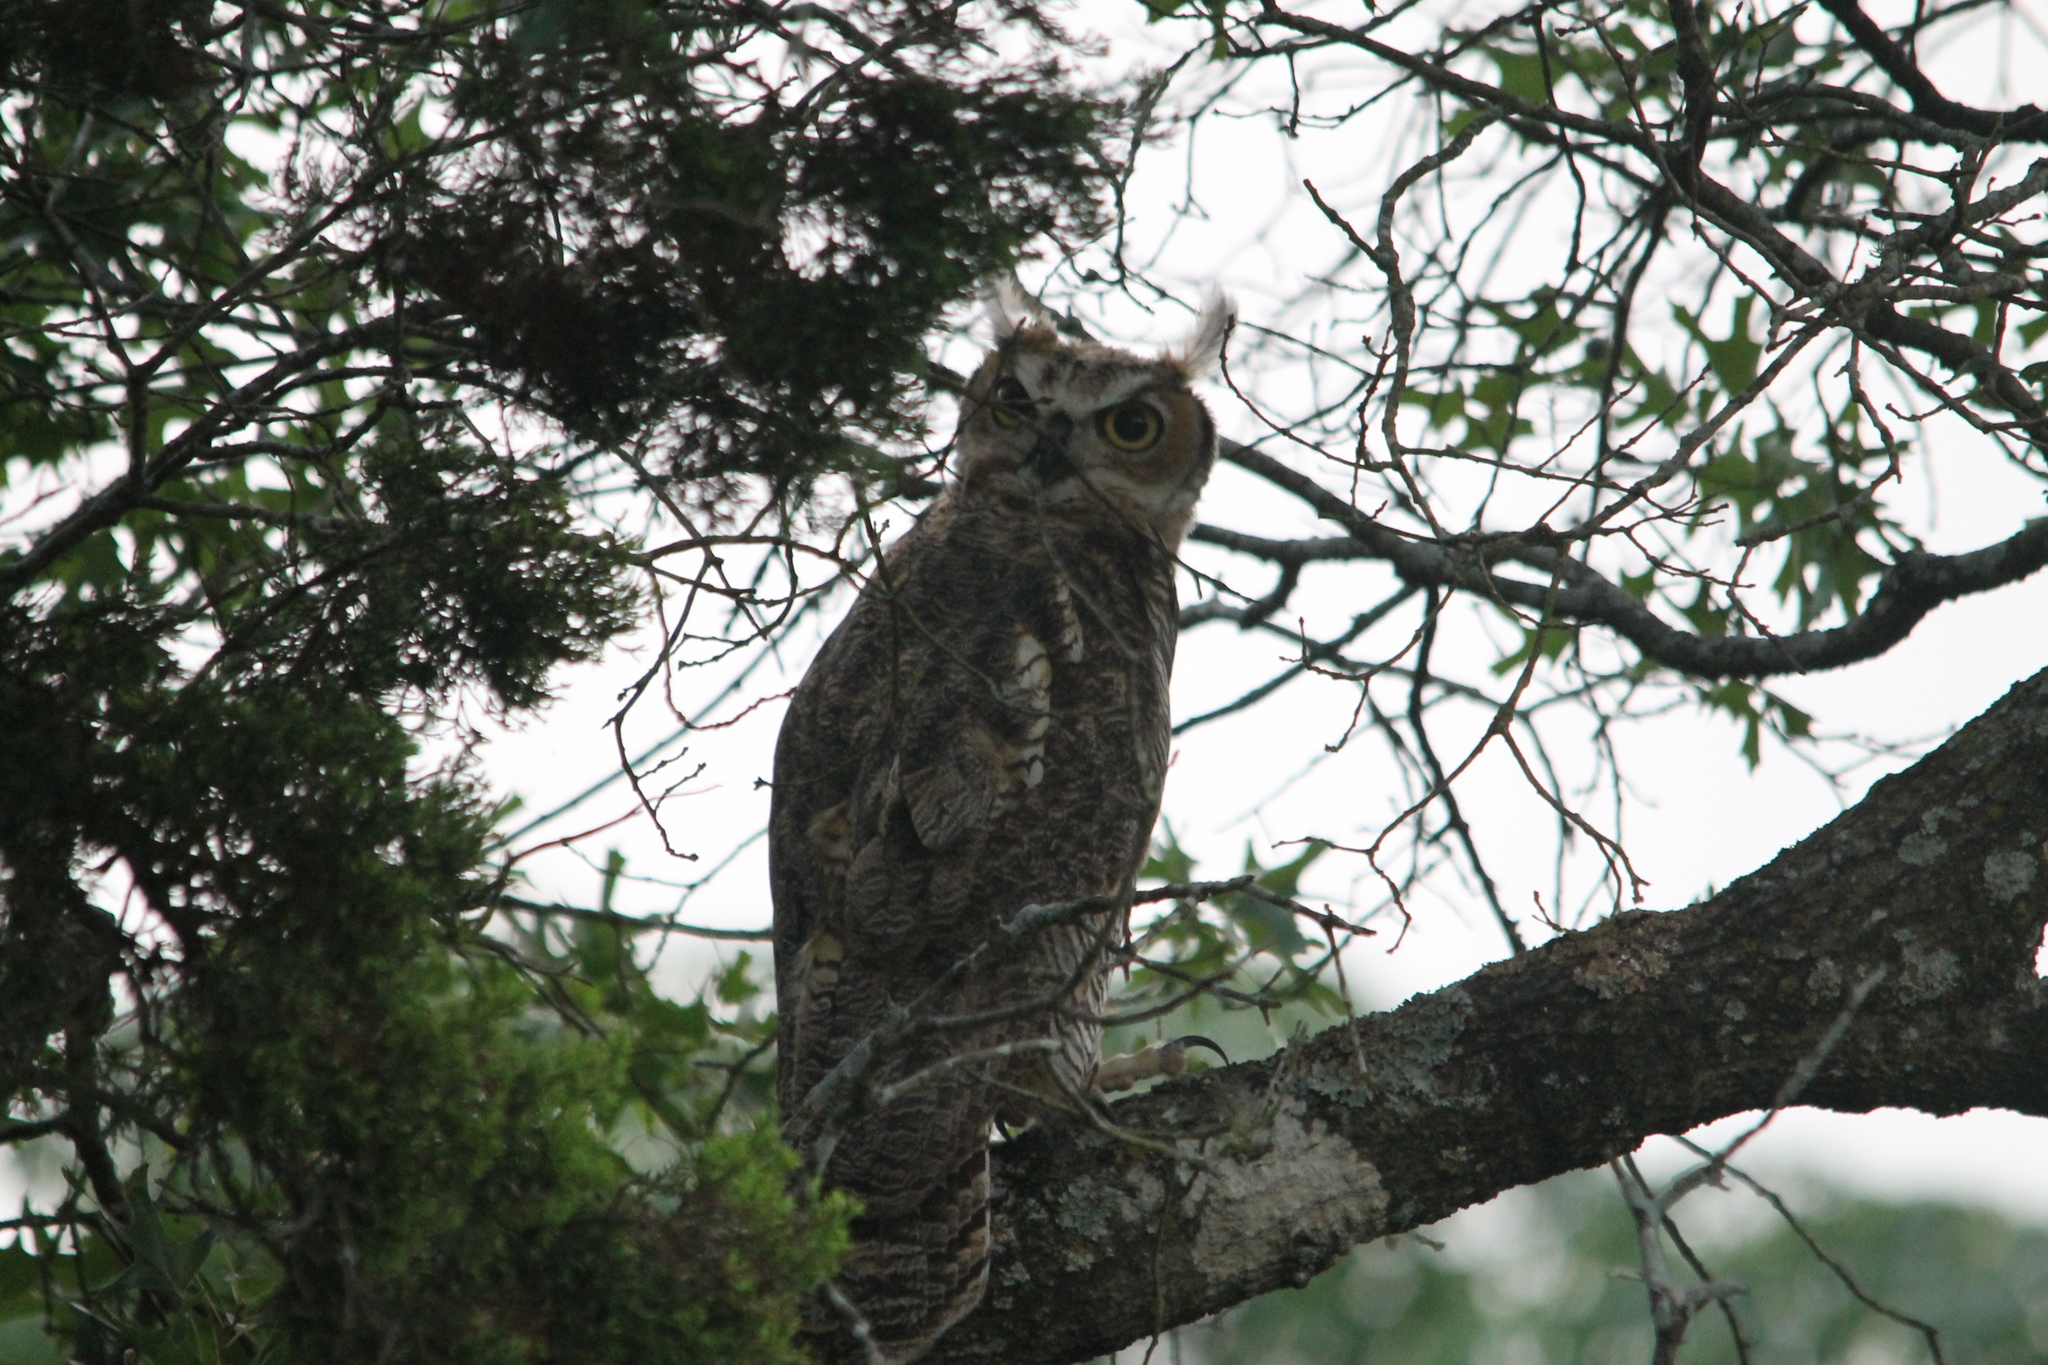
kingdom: Animalia
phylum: Chordata
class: Aves
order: Strigiformes
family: Strigidae
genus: Bubo
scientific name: Bubo virginianus
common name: Great horned owl
